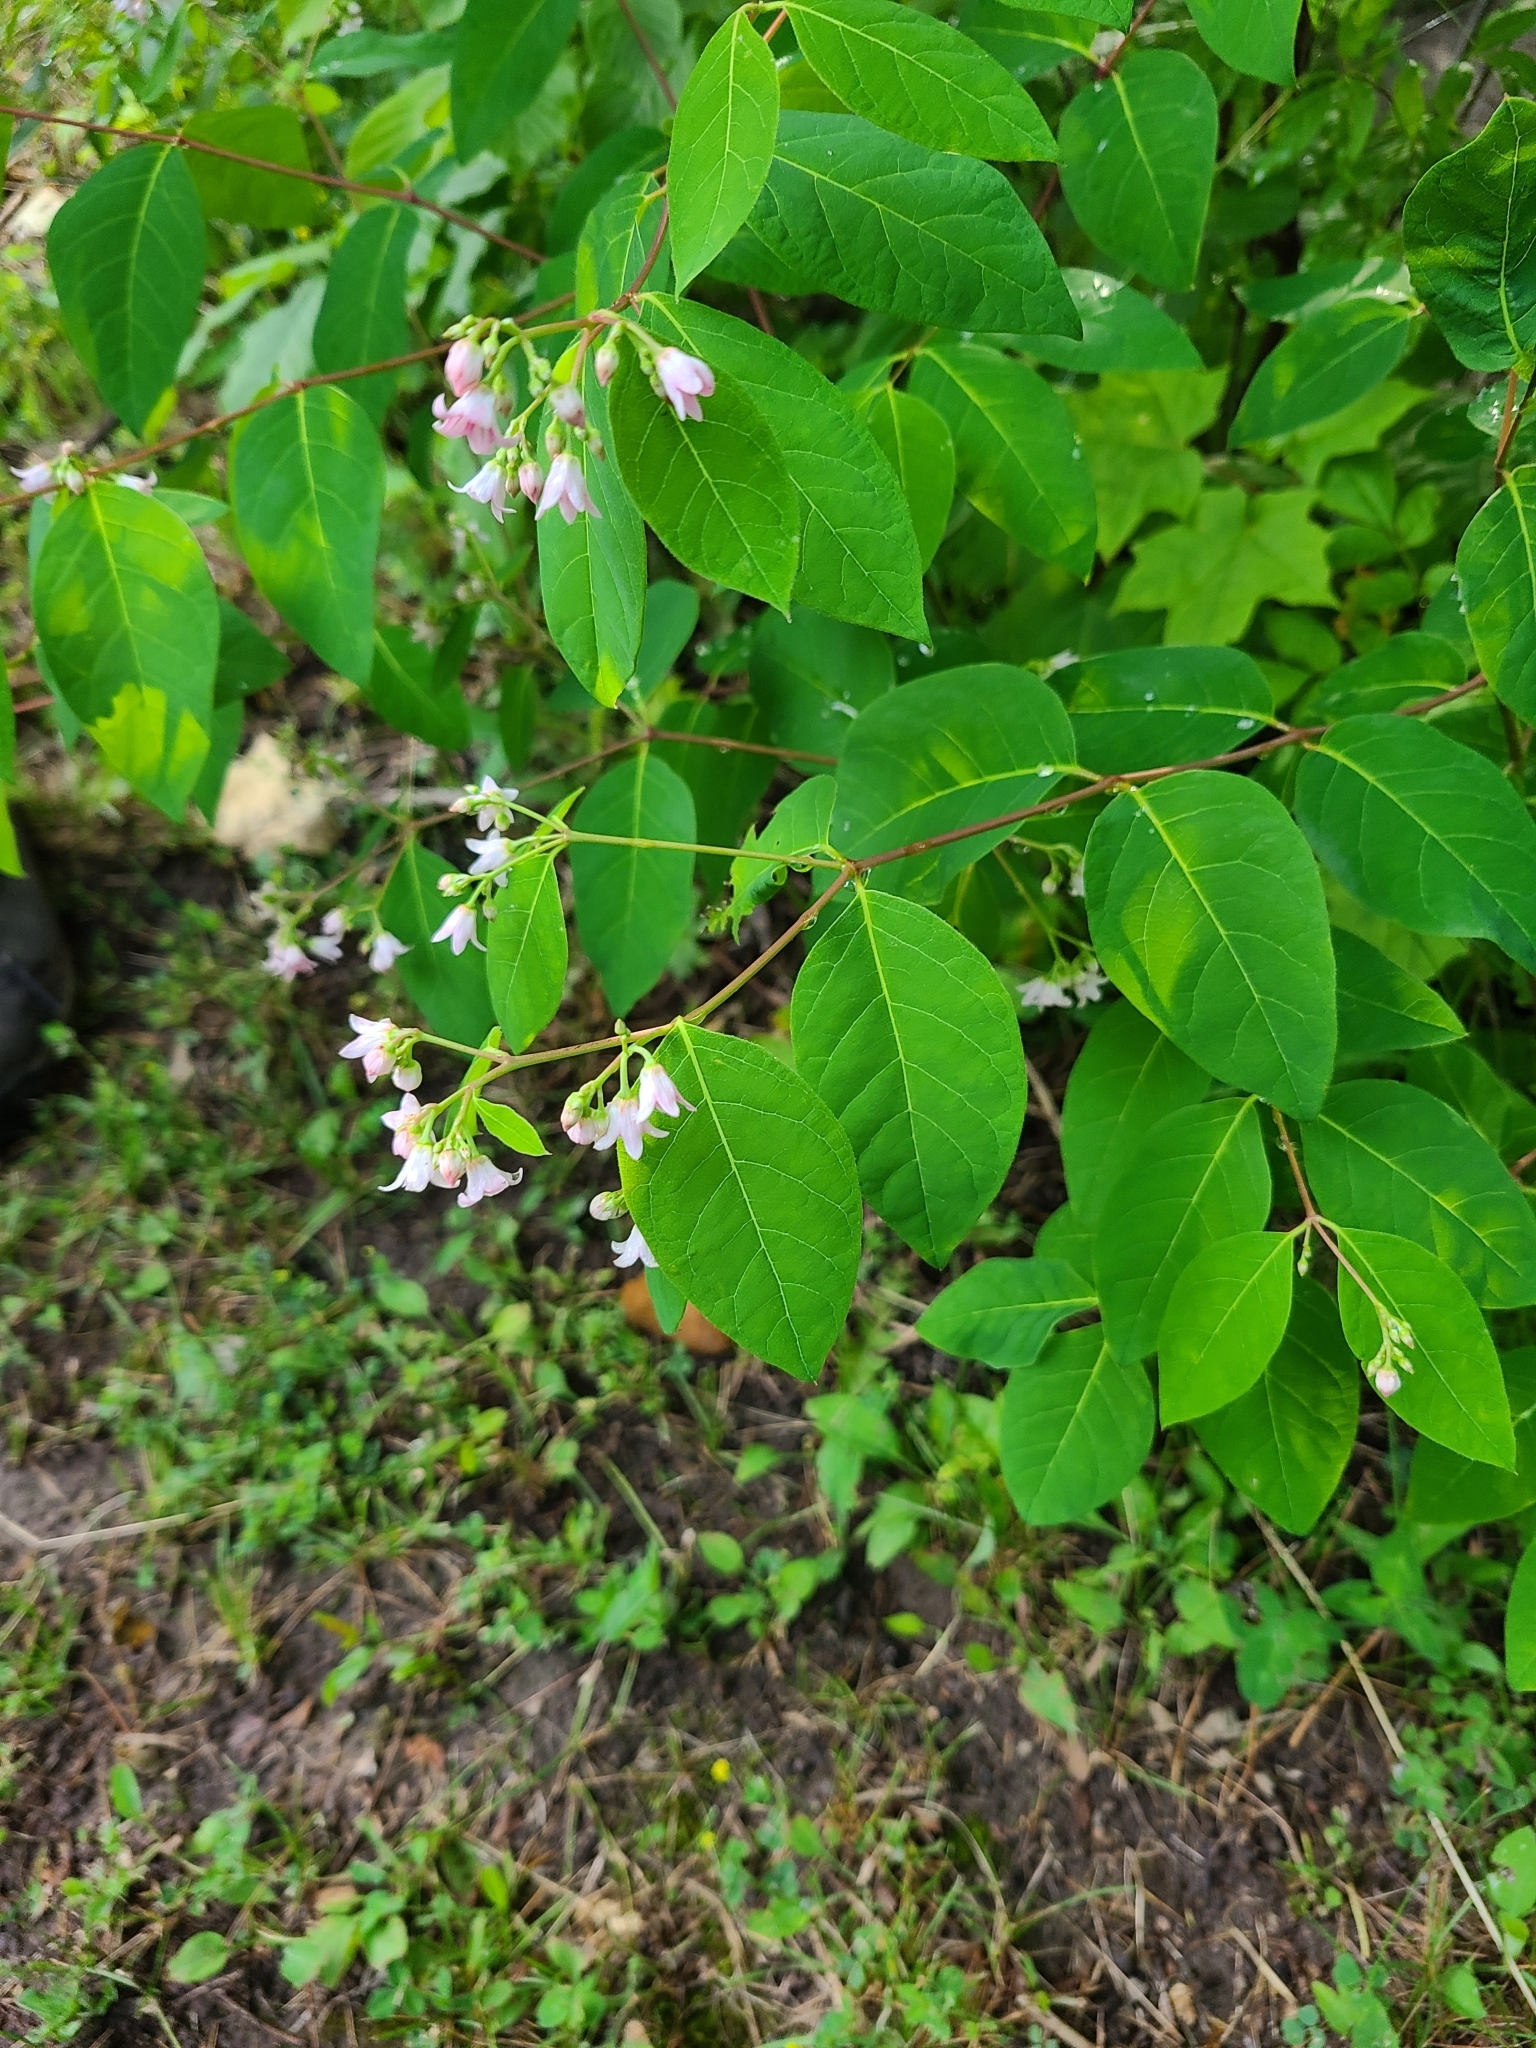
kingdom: Plantae
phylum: Tracheophyta
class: Magnoliopsida
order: Gentianales
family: Apocynaceae
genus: Apocynum
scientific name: Apocynum androsaemifolium
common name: Spreading dogbane
